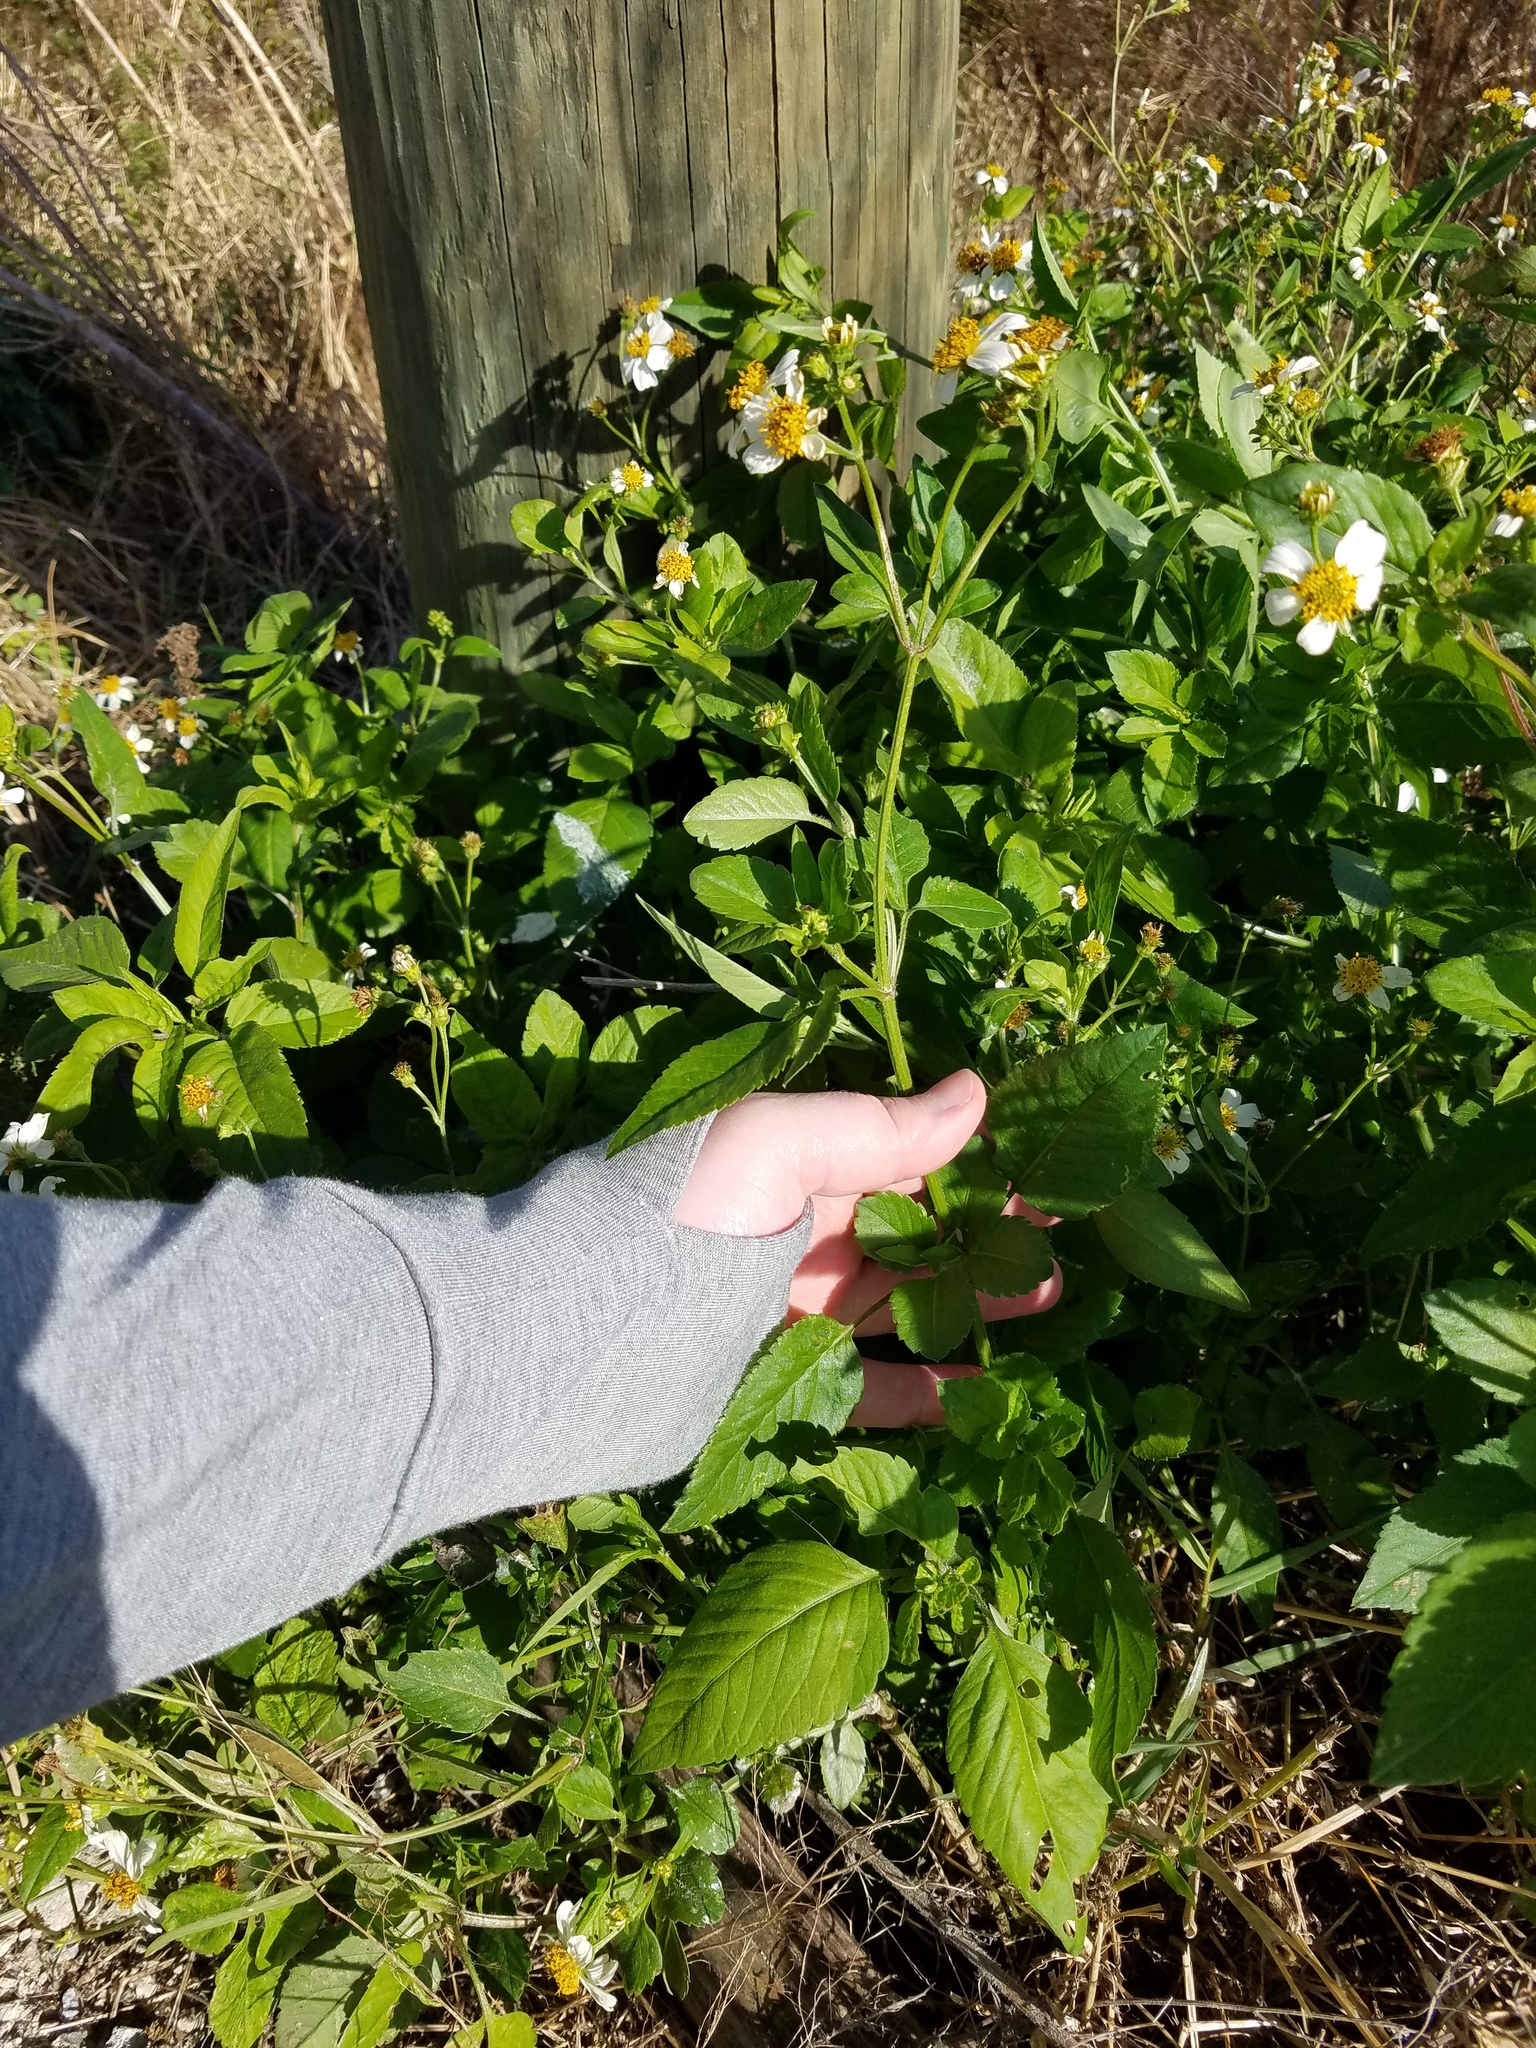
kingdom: Plantae
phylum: Tracheophyta
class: Magnoliopsida
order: Asterales
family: Asteraceae
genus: Bidens
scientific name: Bidens alba
